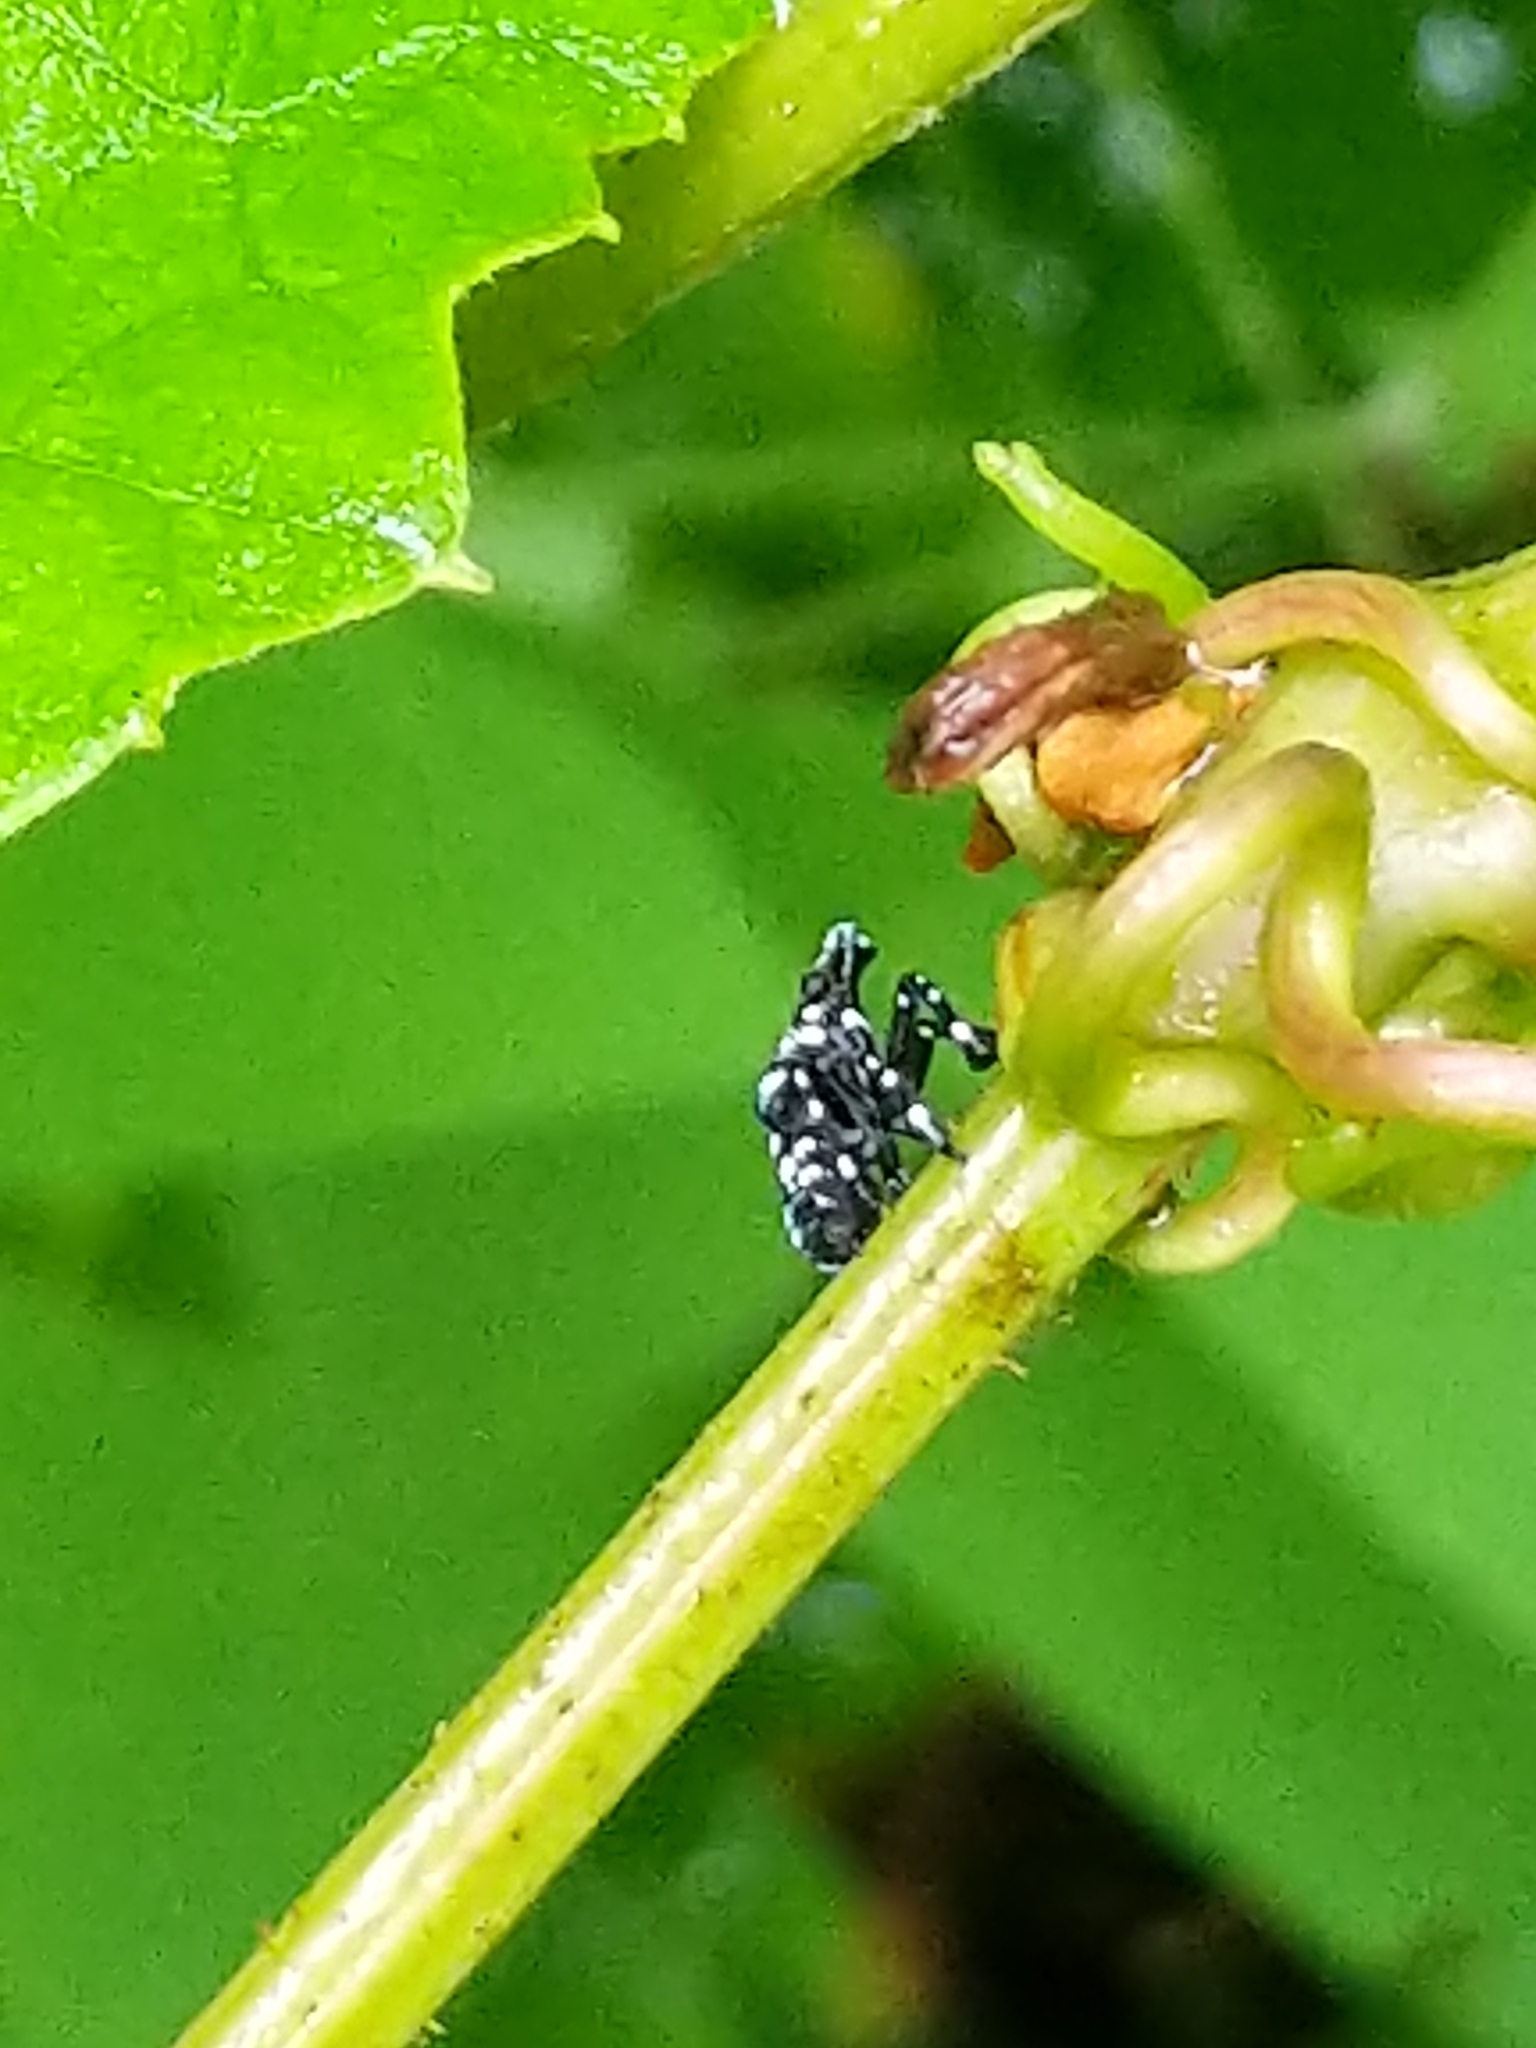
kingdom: Animalia
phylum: Arthropoda
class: Insecta
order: Hemiptera
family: Fulgoridae
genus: Lycorma
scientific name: Lycorma delicatula
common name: Spotted lanternfly
